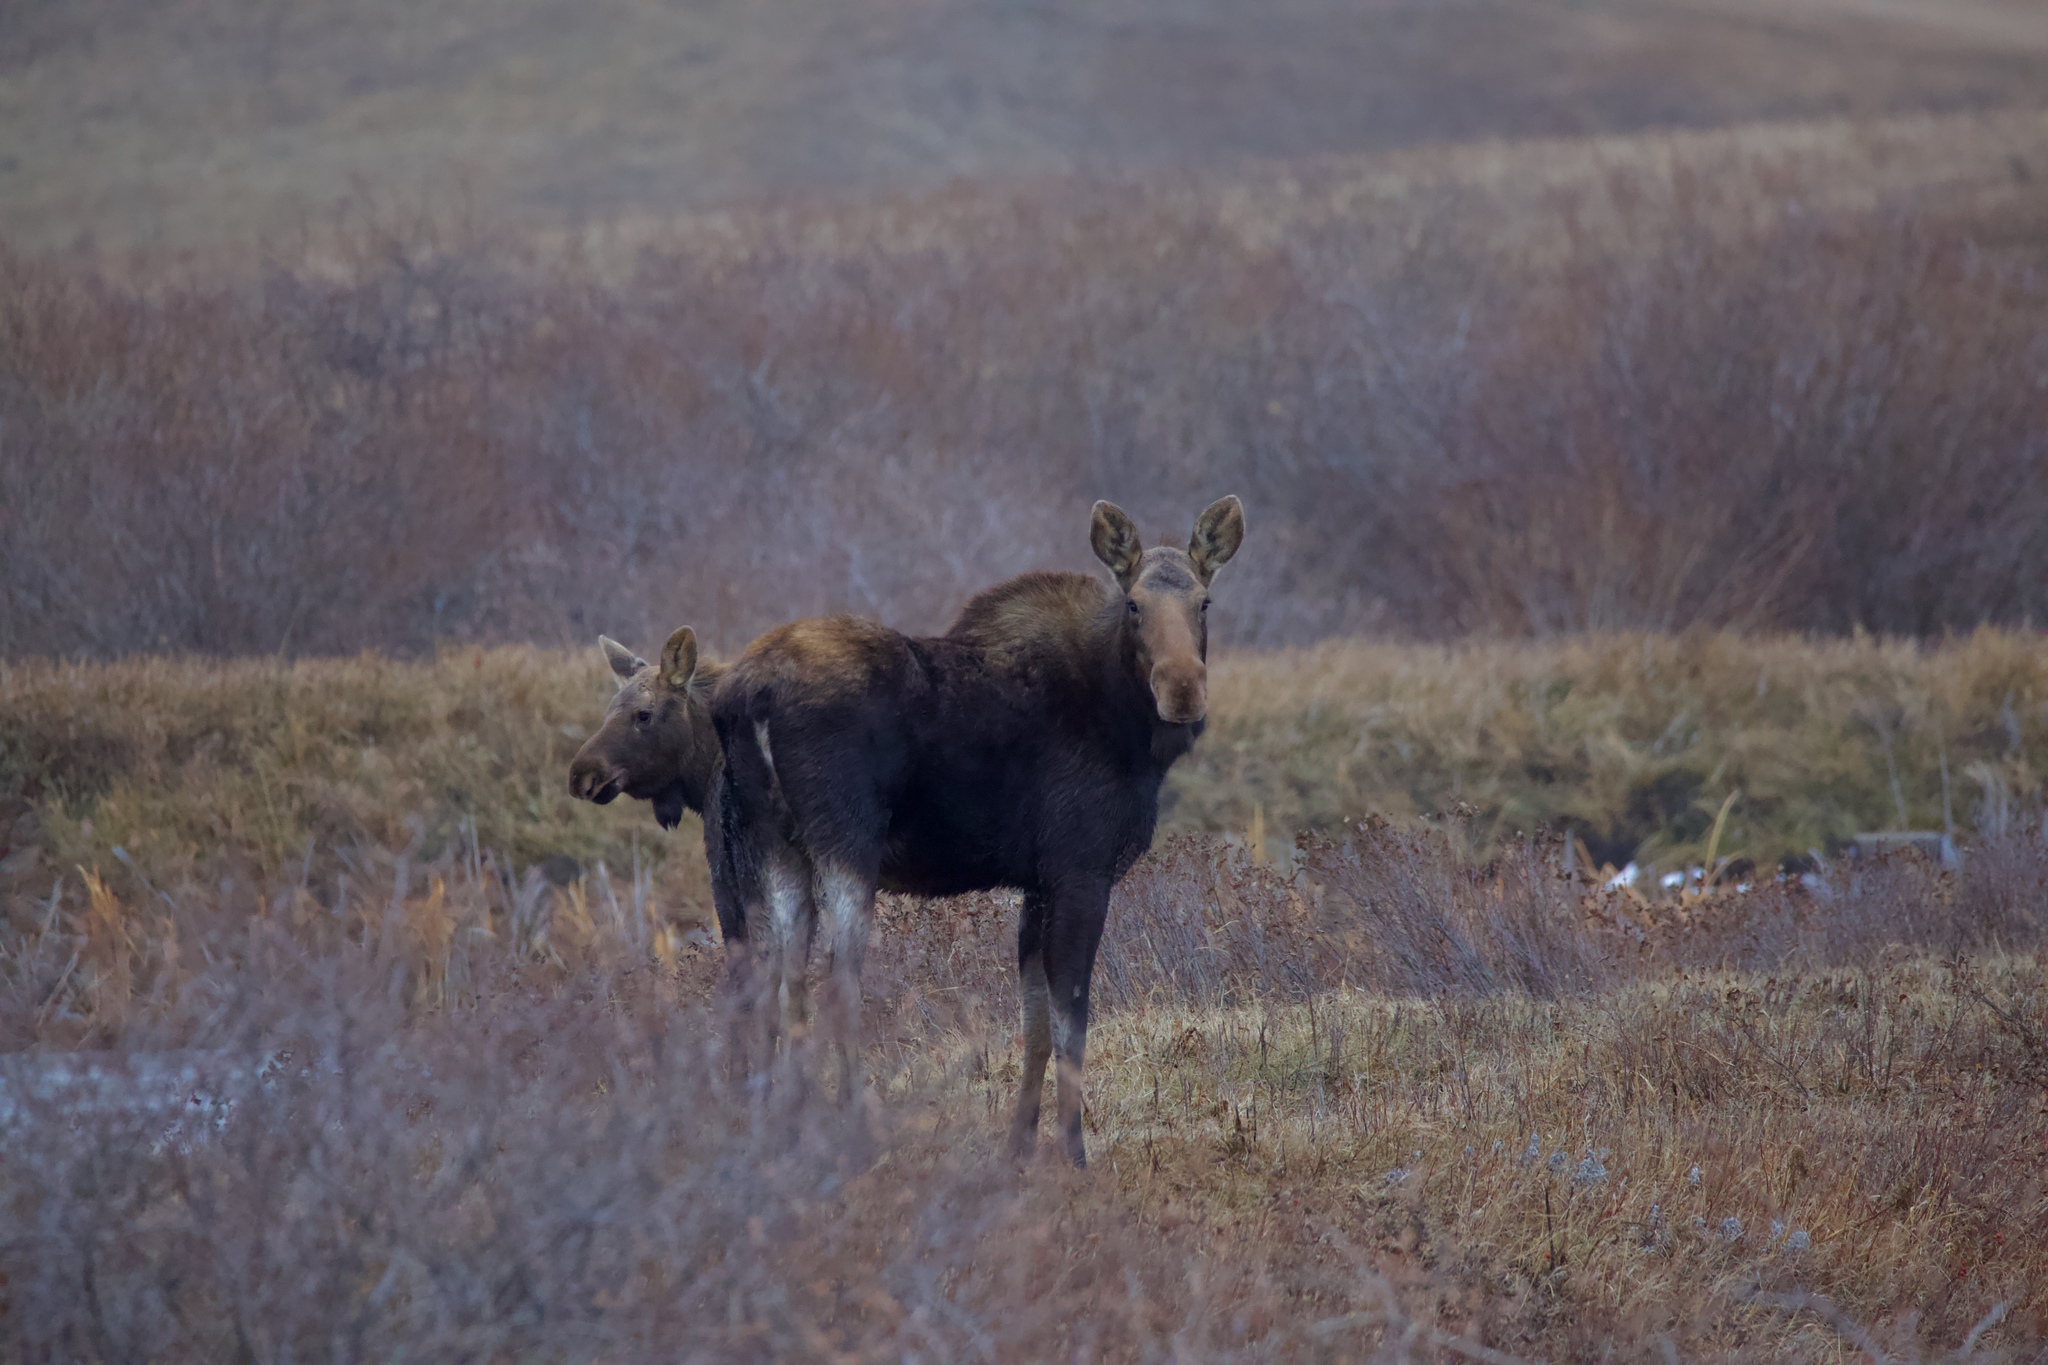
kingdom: Animalia
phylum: Chordata
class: Mammalia
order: Artiodactyla
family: Cervidae
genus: Alces
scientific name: Alces alces
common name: Moose
